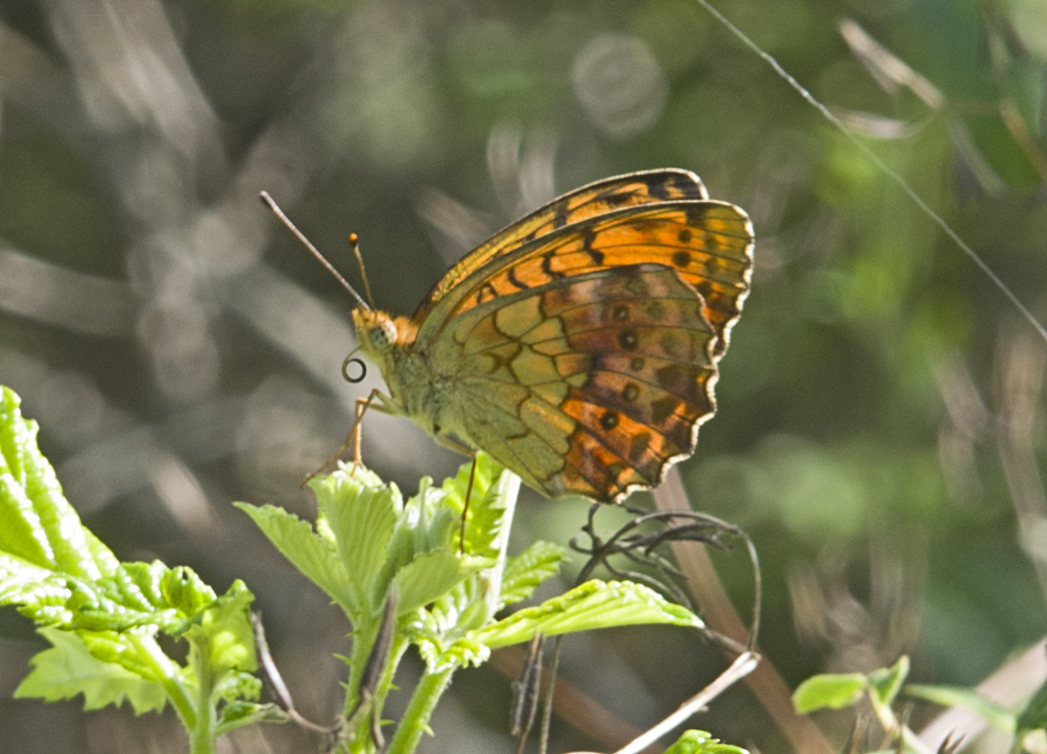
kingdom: Animalia
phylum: Arthropoda
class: Insecta
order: Lepidoptera
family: Nymphalidae
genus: Brenthis
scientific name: Brenthis daphne
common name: Marbled fritillary
